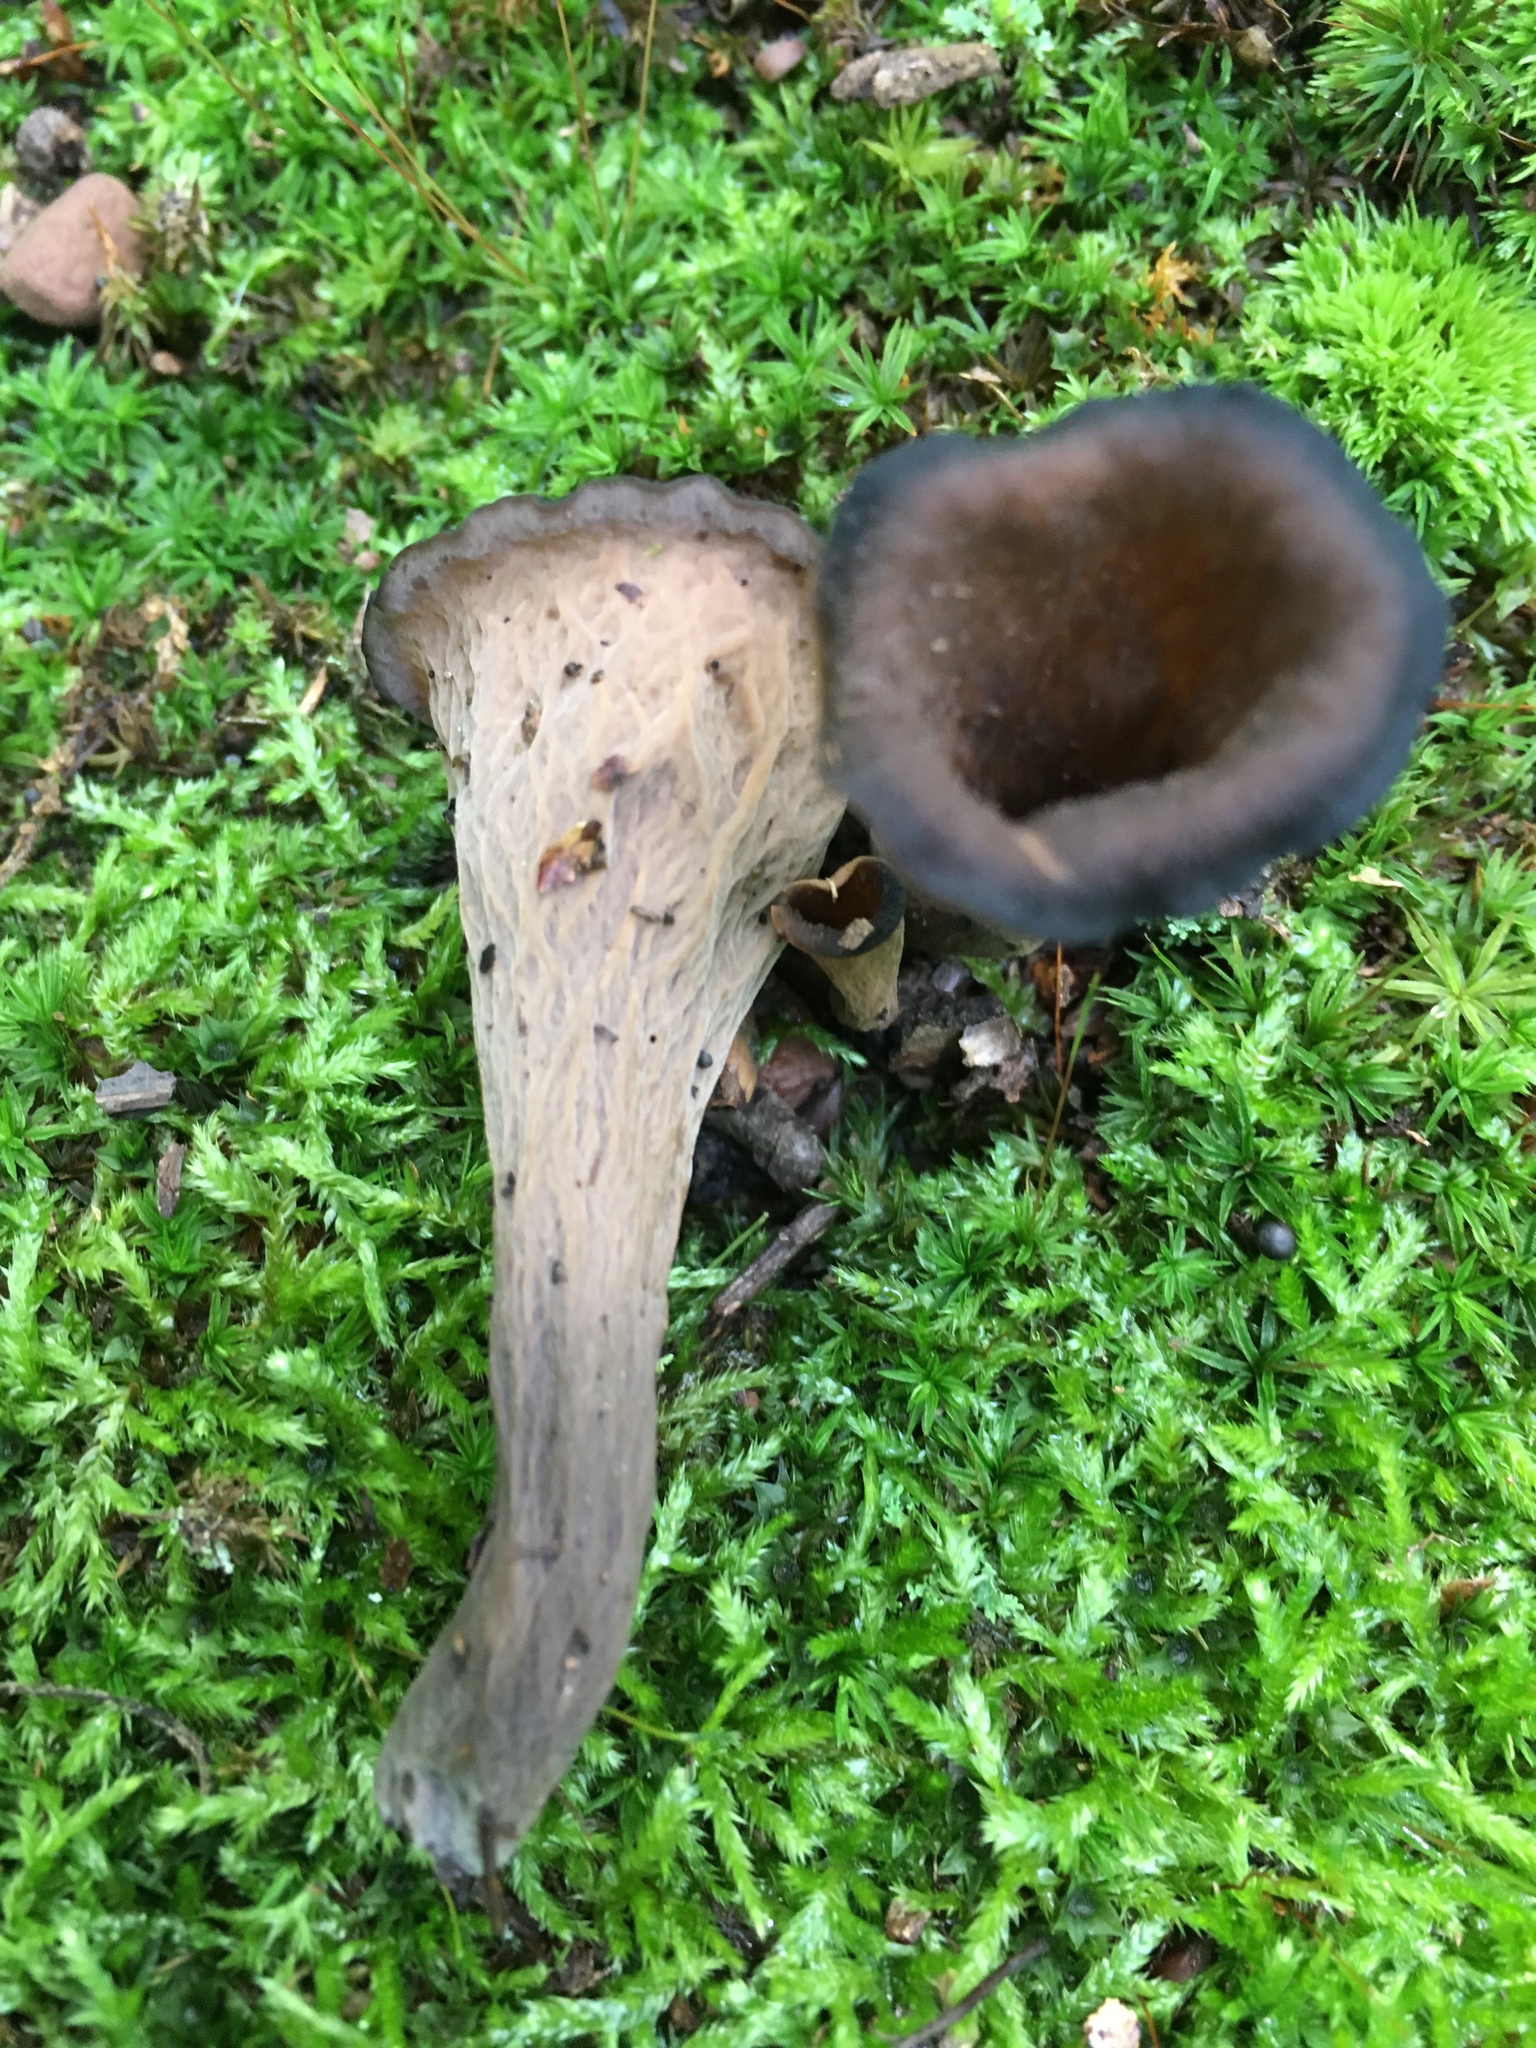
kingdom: Fungi
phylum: Basidiomycota
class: Agaricomycetes
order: Cantharellales
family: Hydnaceae
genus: Craterellus
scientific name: Craterellus cornucopioides
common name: Horn of plenty
